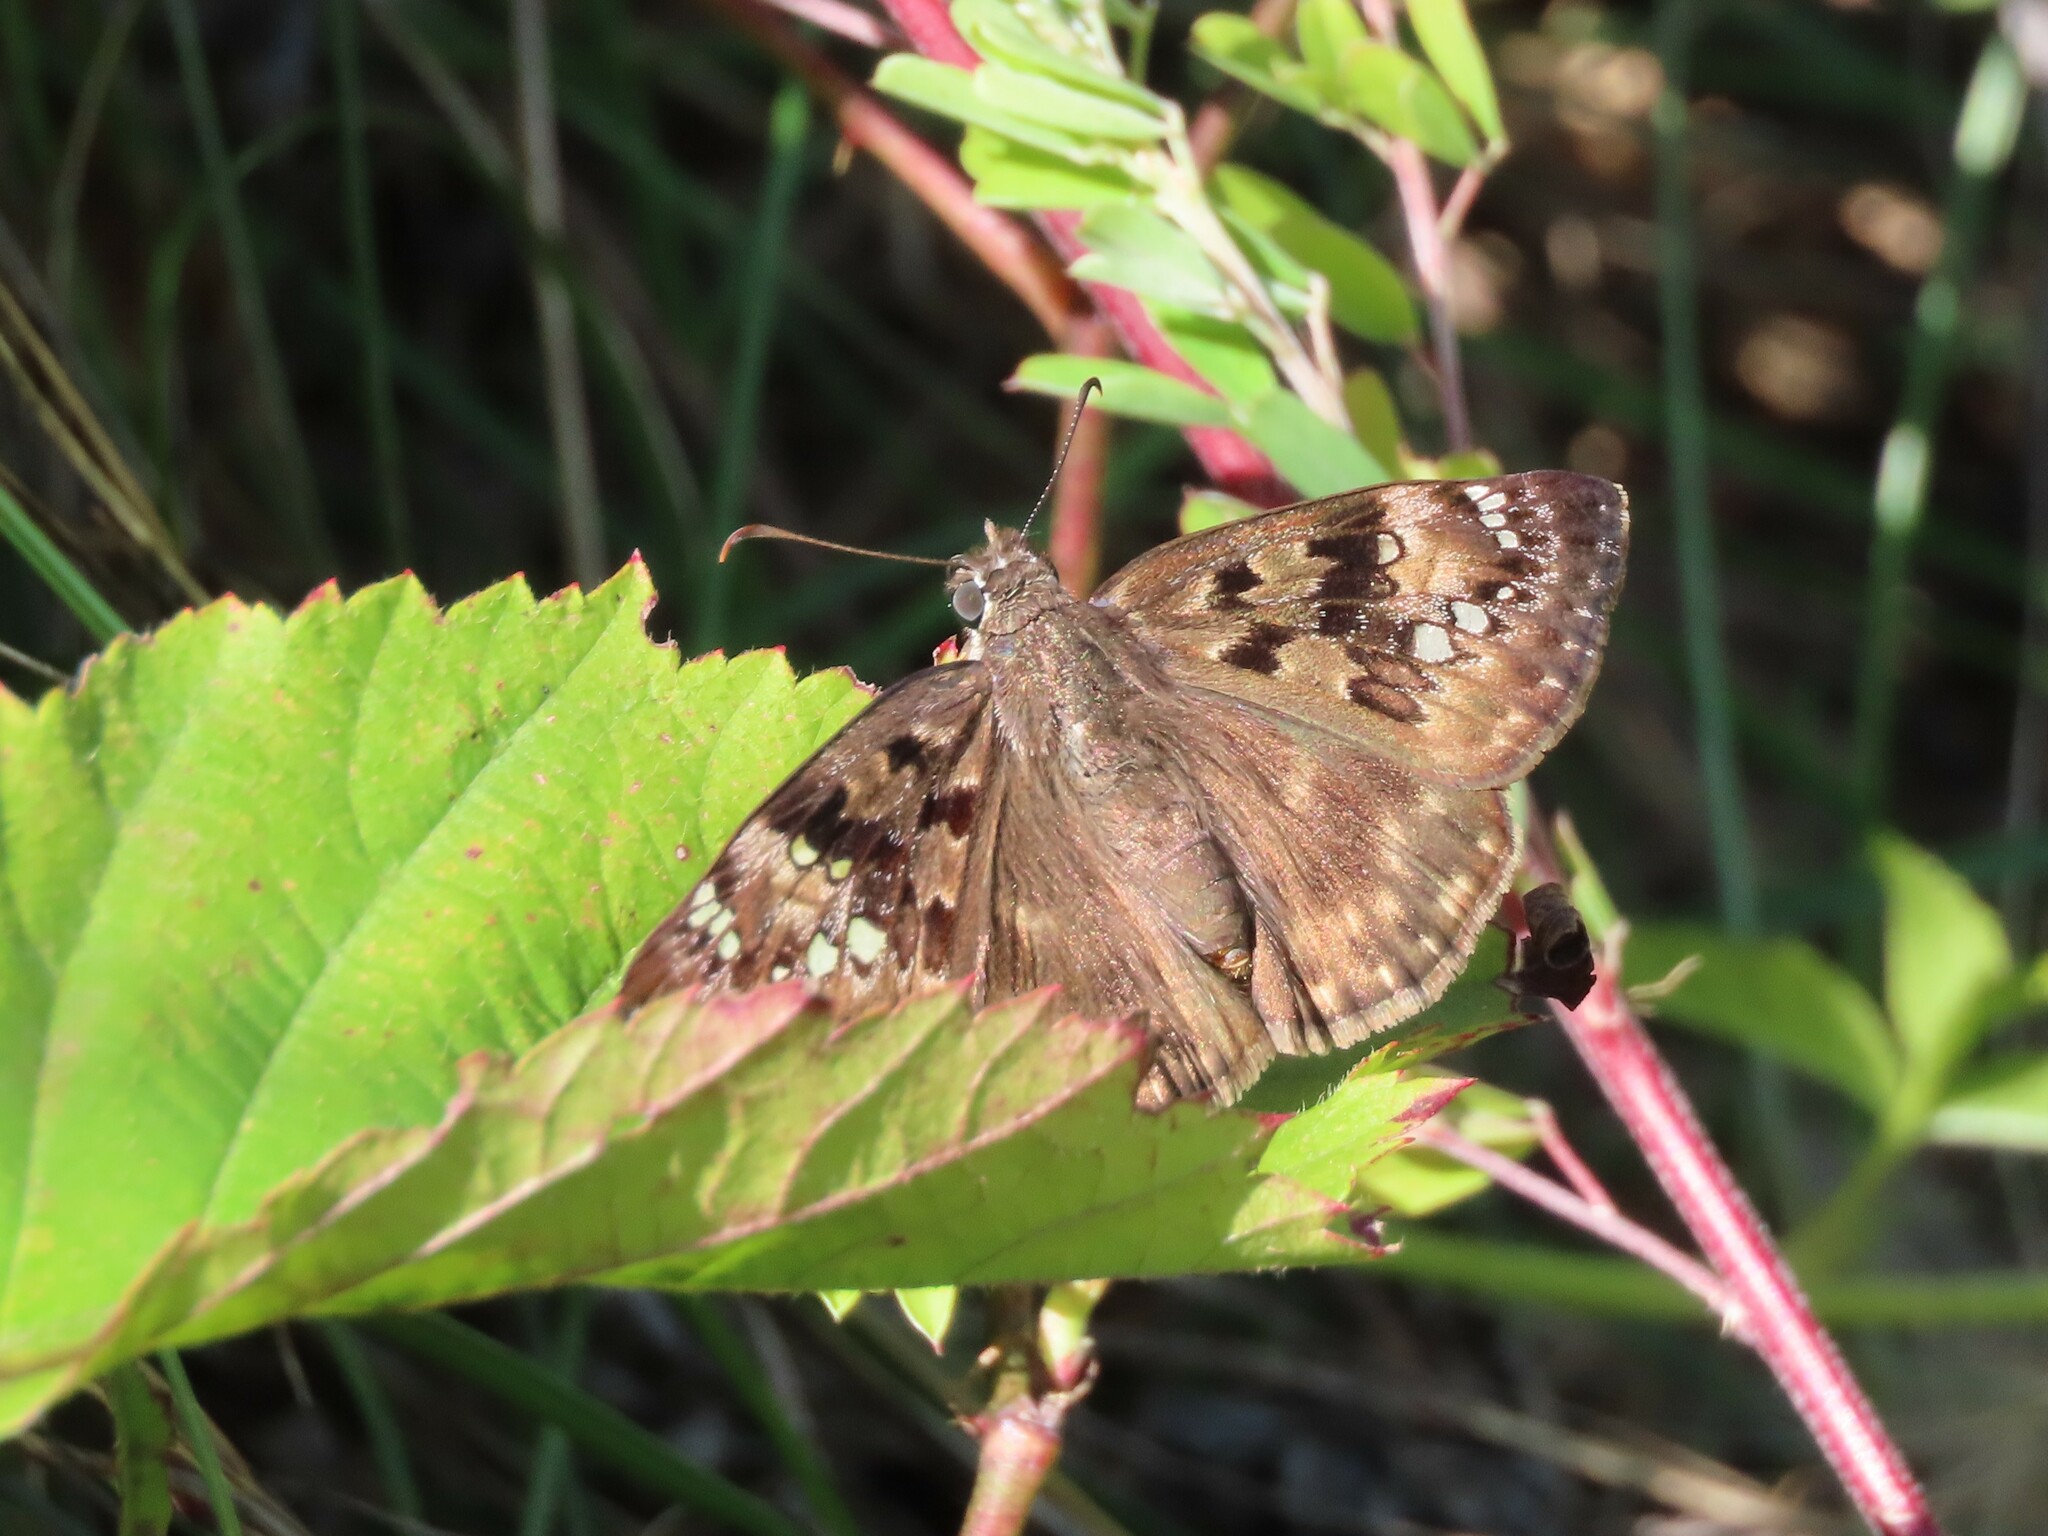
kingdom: Animalia
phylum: Arthropoda
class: Insecta
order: Lepidoptera
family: Hesperiidae
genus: Erynnis
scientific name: Erynnis horatius
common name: Horace's duskywing
